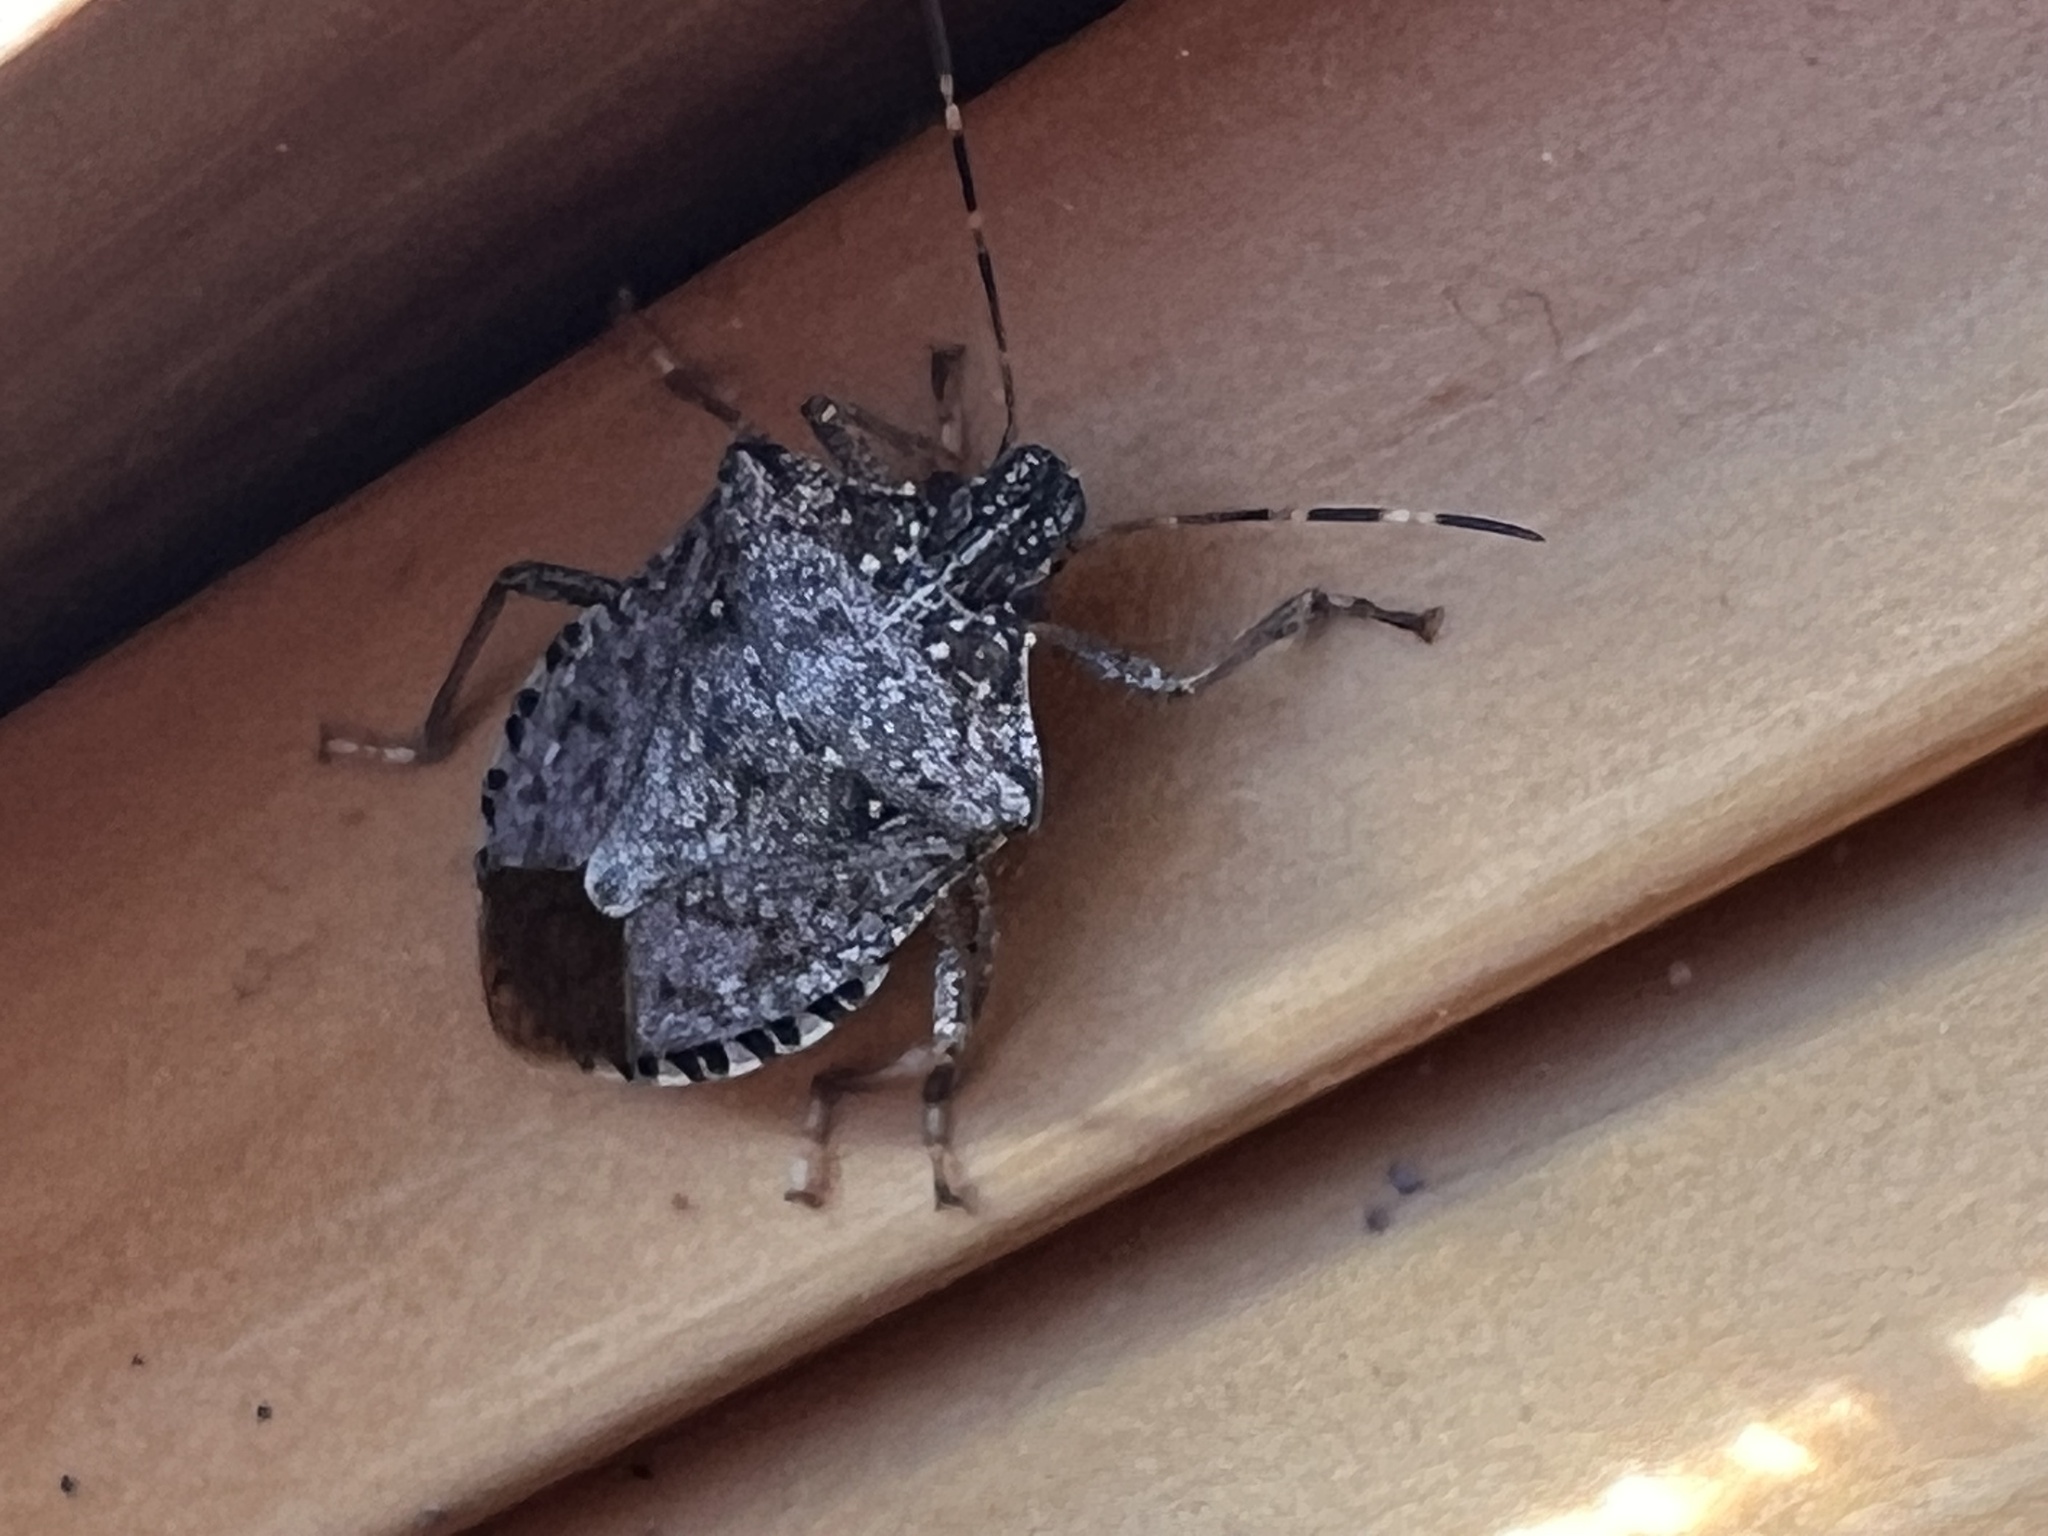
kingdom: Animalia
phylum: Arthropoda
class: Insecta
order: Hemiptera
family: Pentatomidae
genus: Halyomorpha
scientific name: Halyomorpha halys
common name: Brown marmorated stink bug
